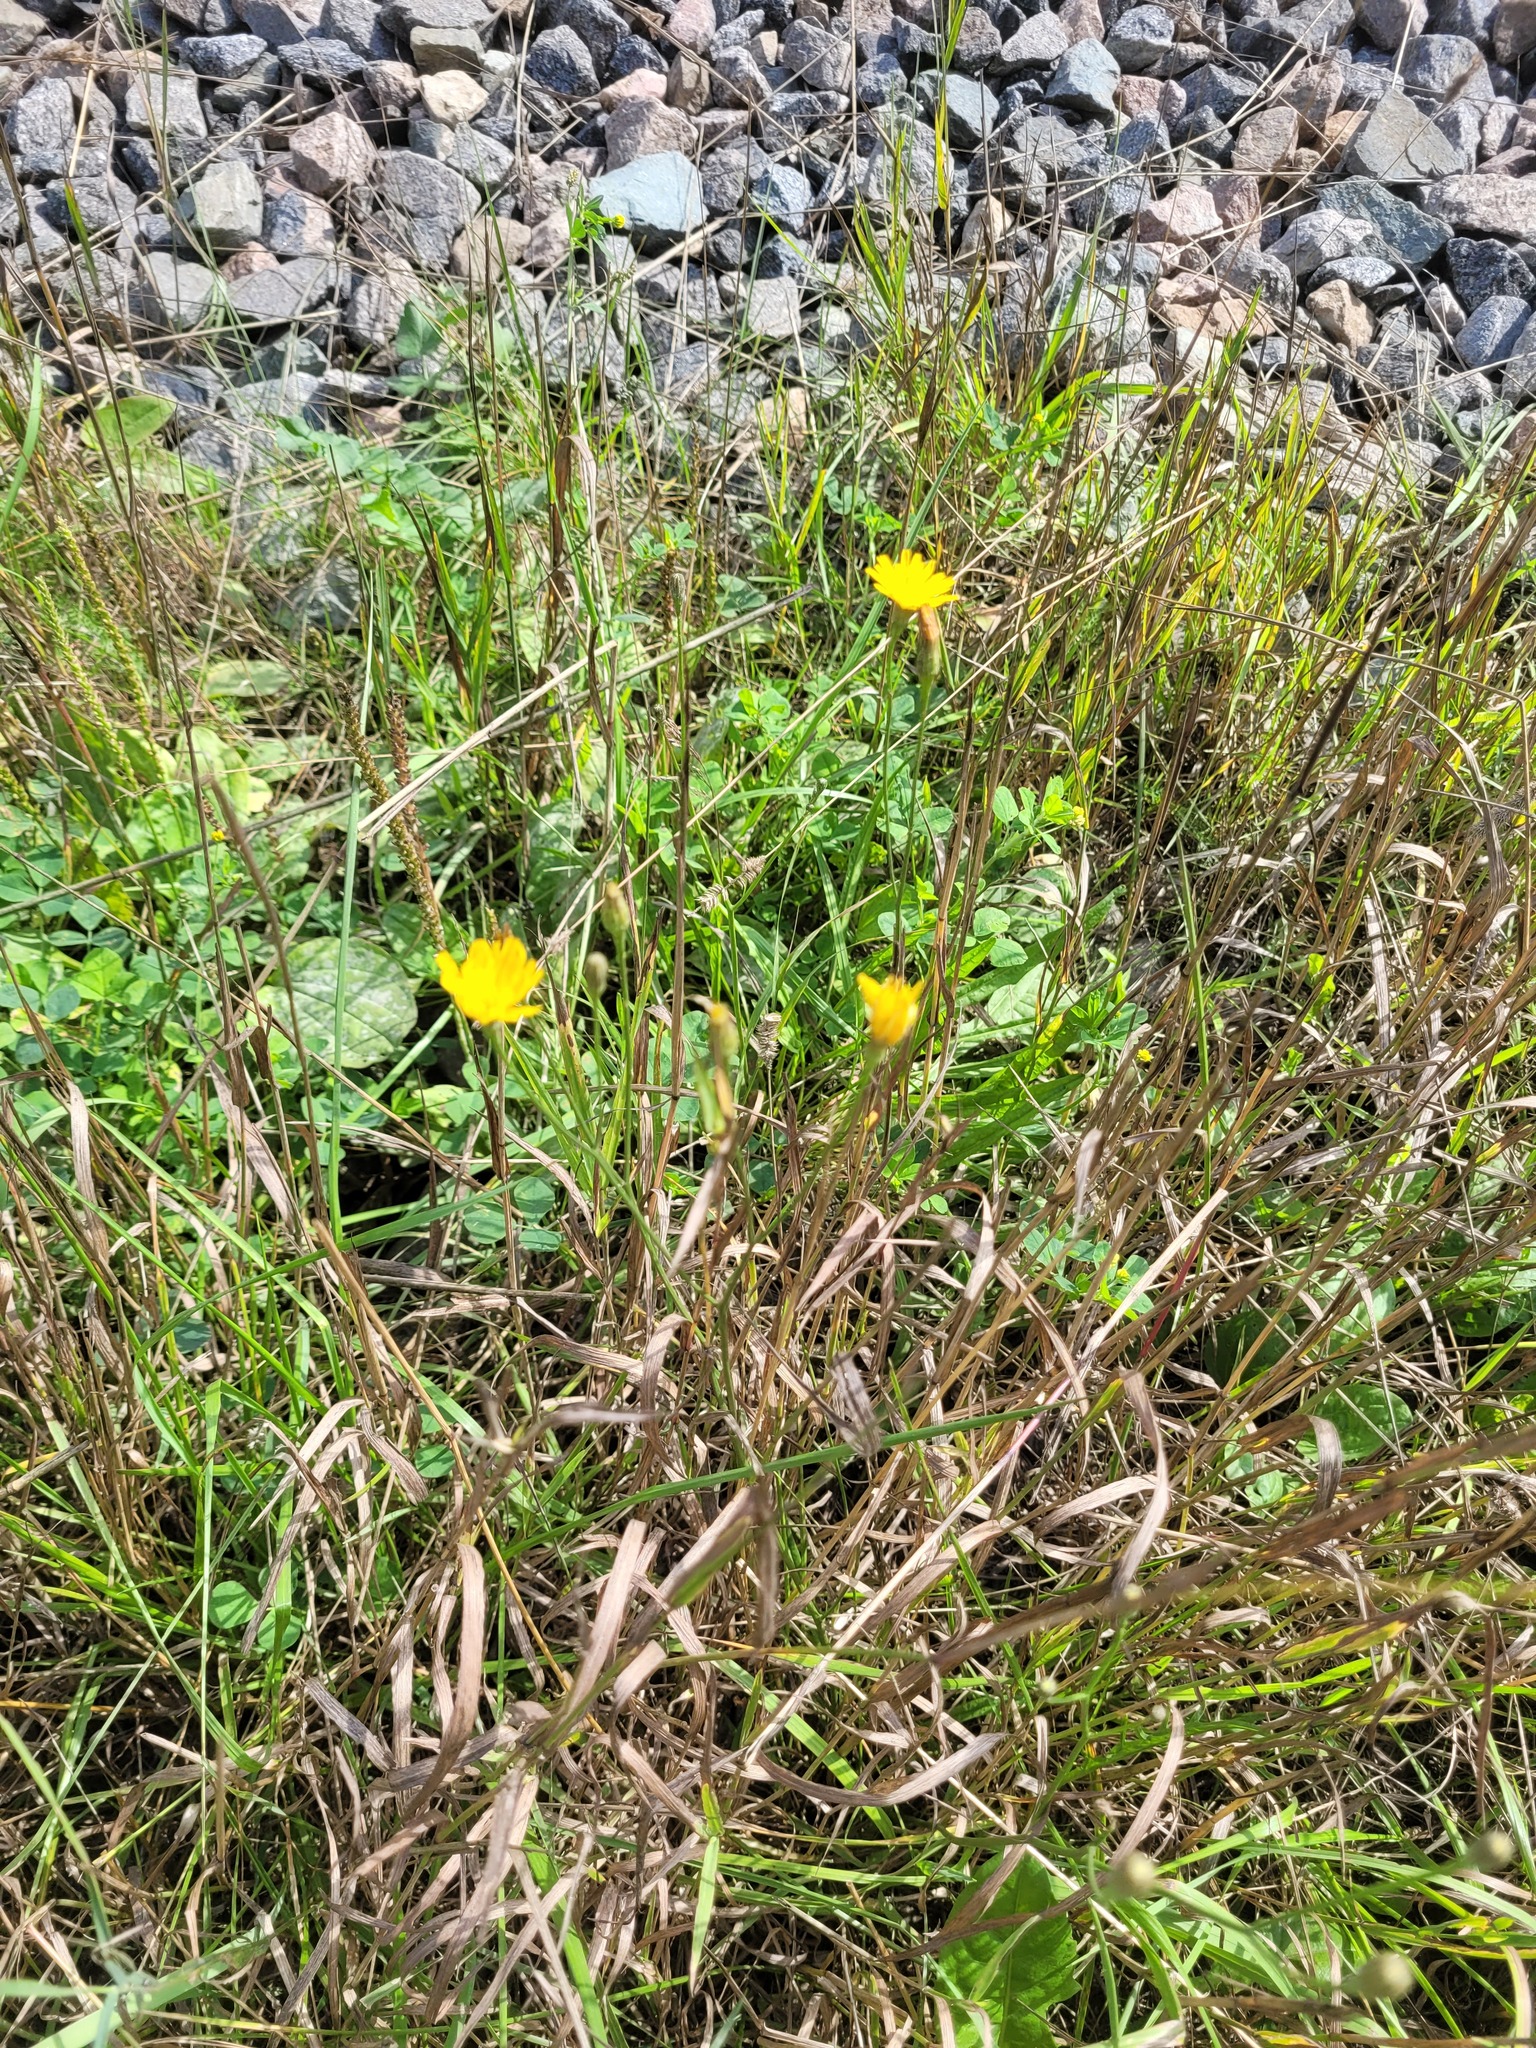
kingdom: Plantae
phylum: Tracheophyta
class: Magnoliopsida
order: Asterales
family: Asteraceae
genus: Scorzoneroides
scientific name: Scorzoneroides autumnalis
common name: Autumn hawkbit
